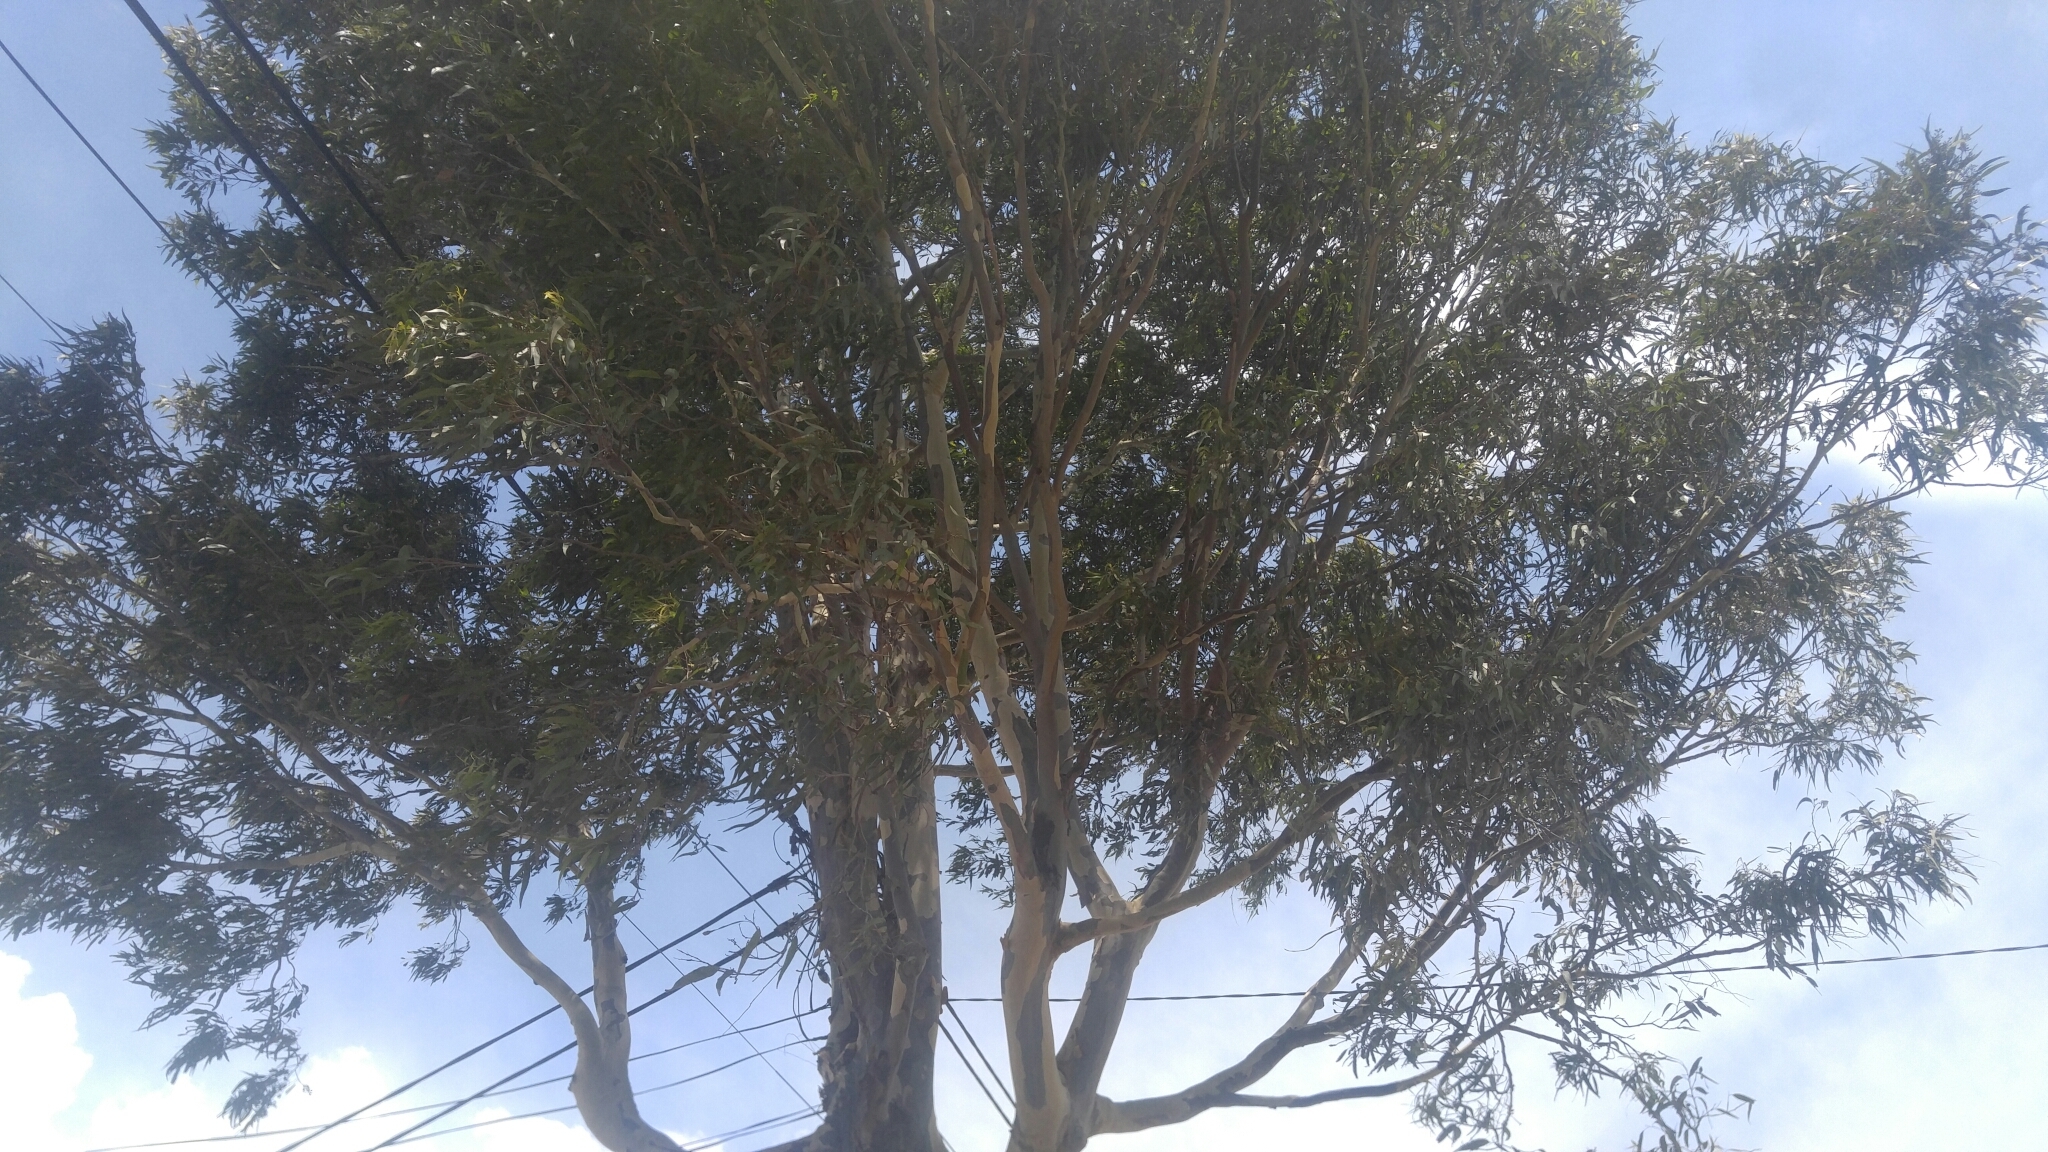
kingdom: Animalia
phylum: Chordata
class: Aves
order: Passeriformes
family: Passeridae
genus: Passer
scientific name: Passer domesticus
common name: House sparrow
